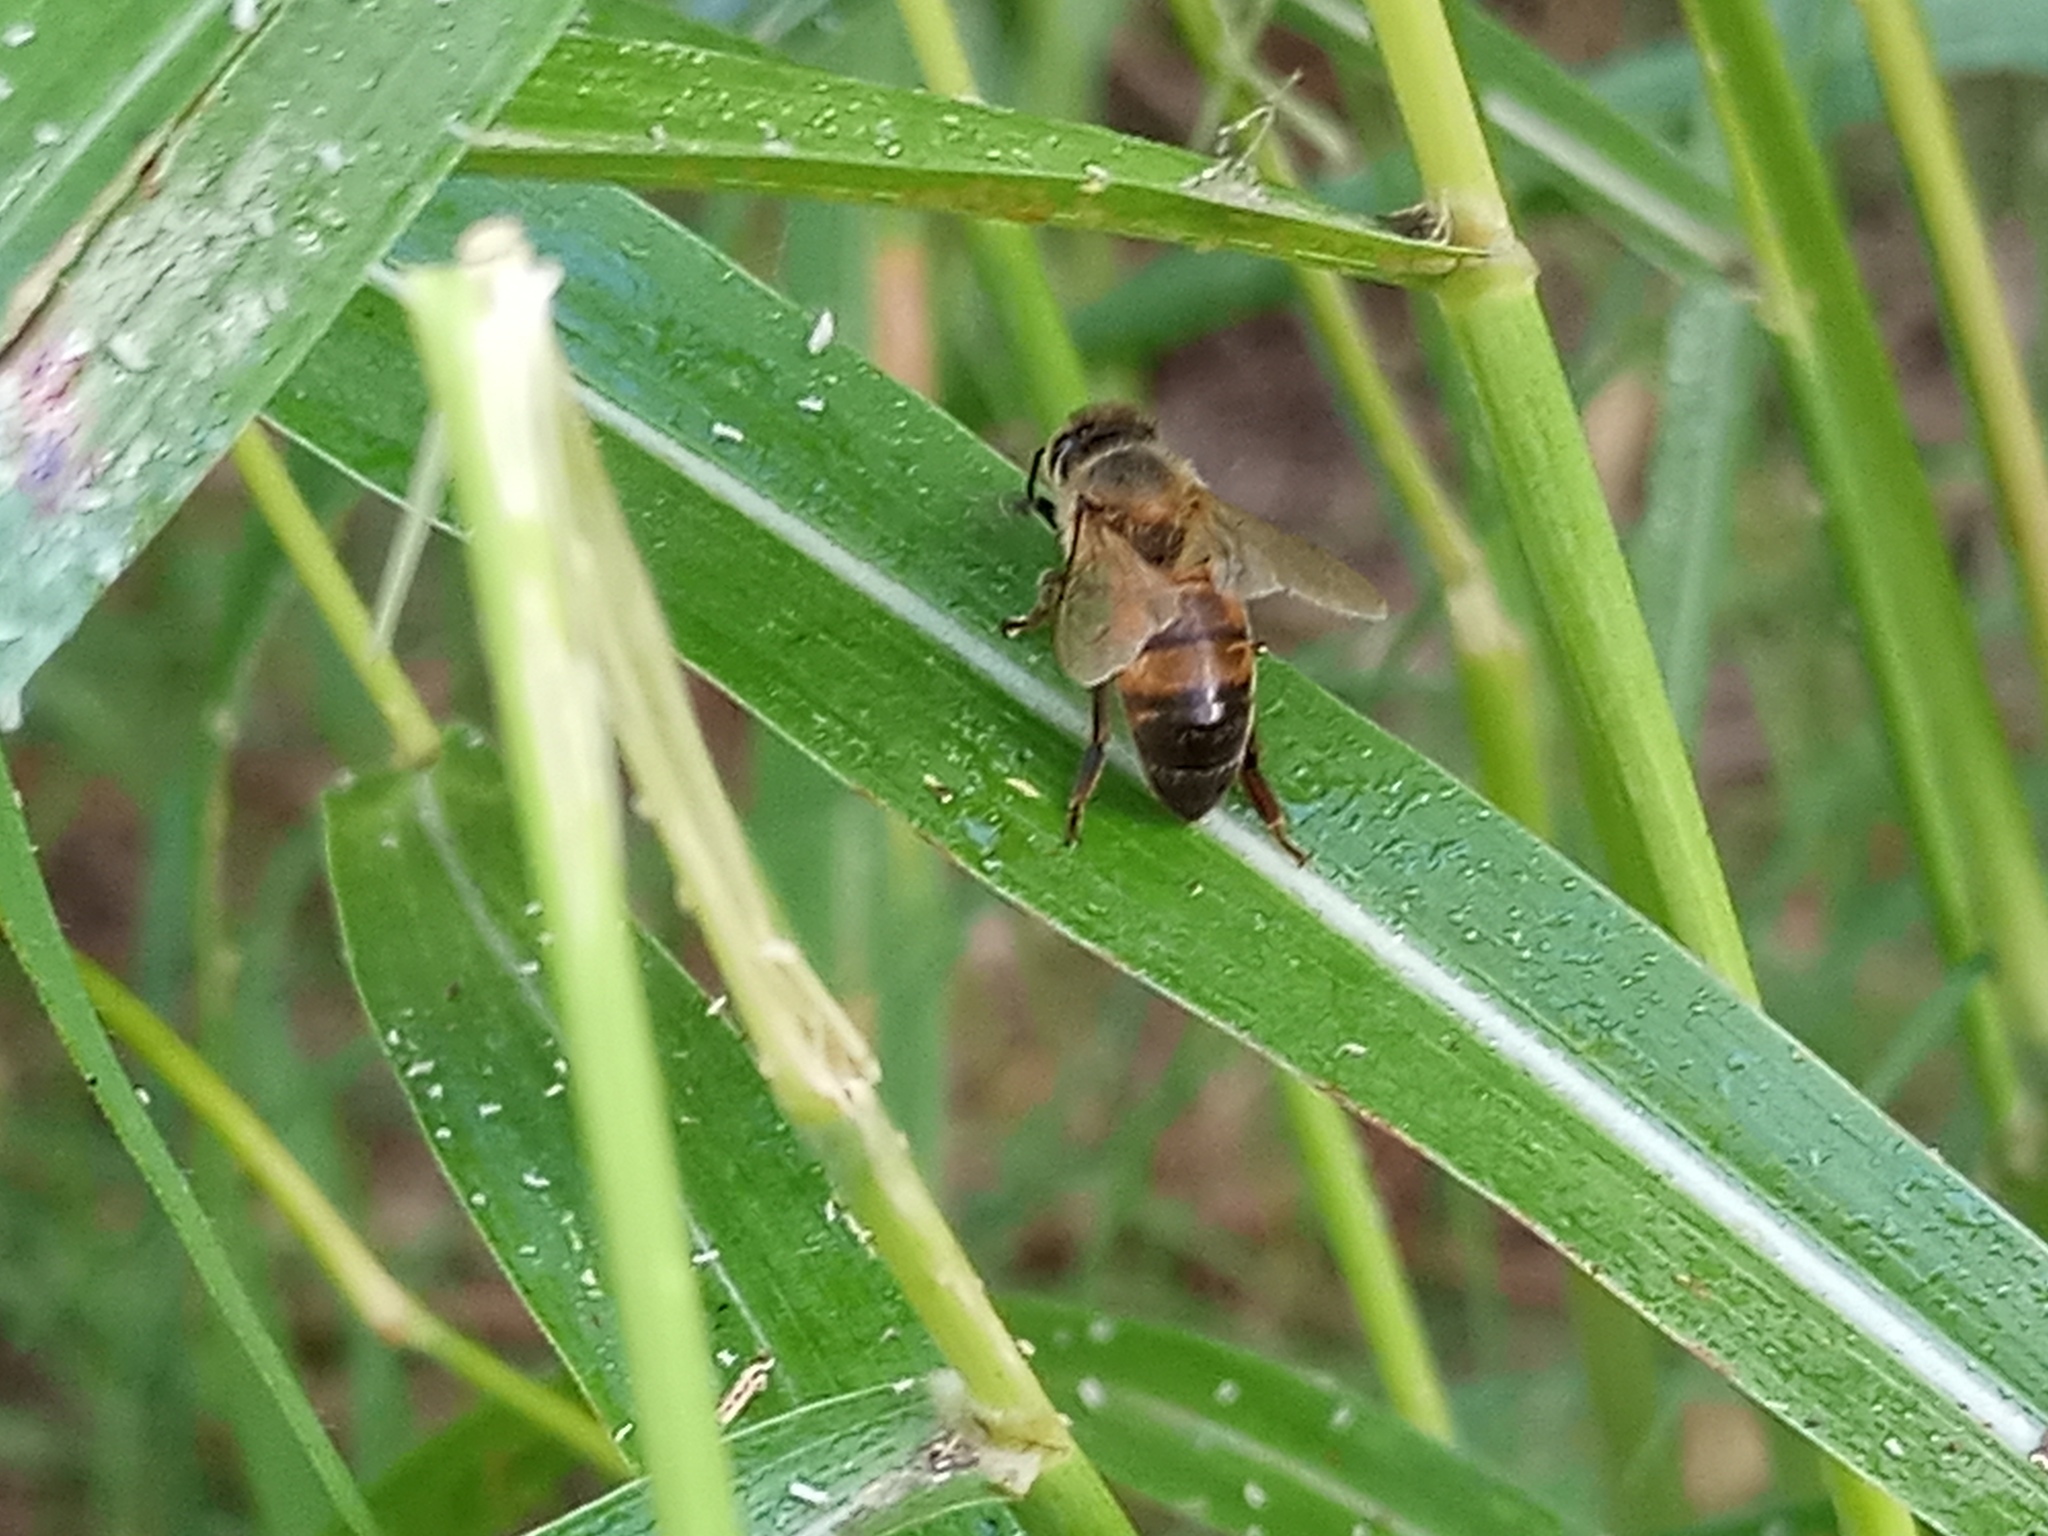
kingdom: Animalia
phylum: Arthropoda
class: Insecta
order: Hymenoptera
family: Apidae
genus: Apis
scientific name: Apis mellifera
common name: Honey bee
